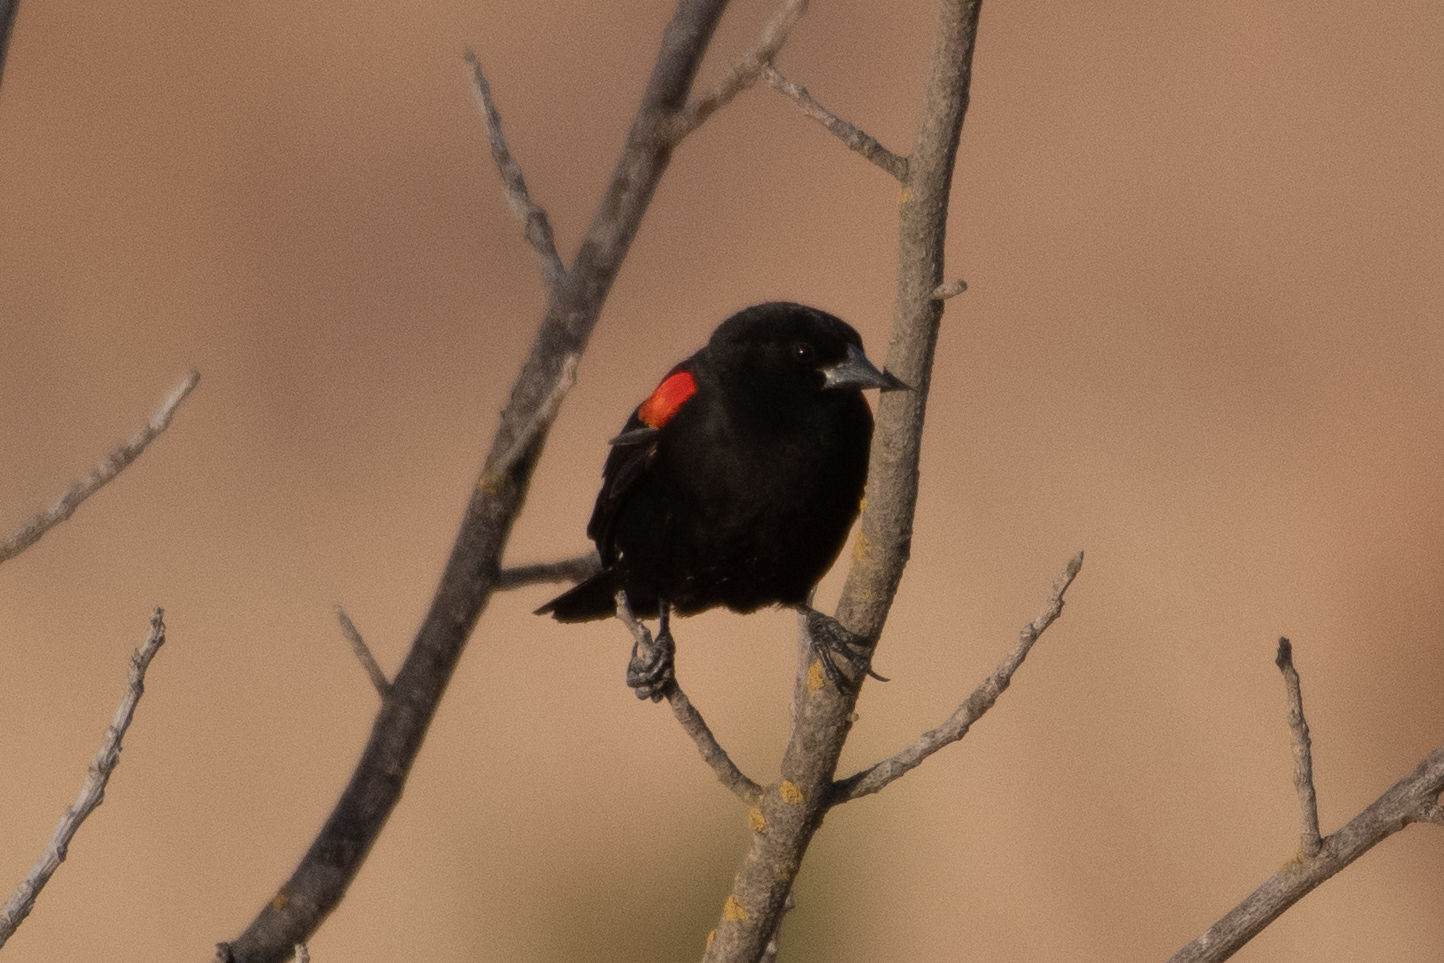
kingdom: Animalia
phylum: Chordata
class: Aves
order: Passeriformes
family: Icteridae
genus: Agelaius
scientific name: Agelaius phoeniceus
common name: Red-winged blackbird
